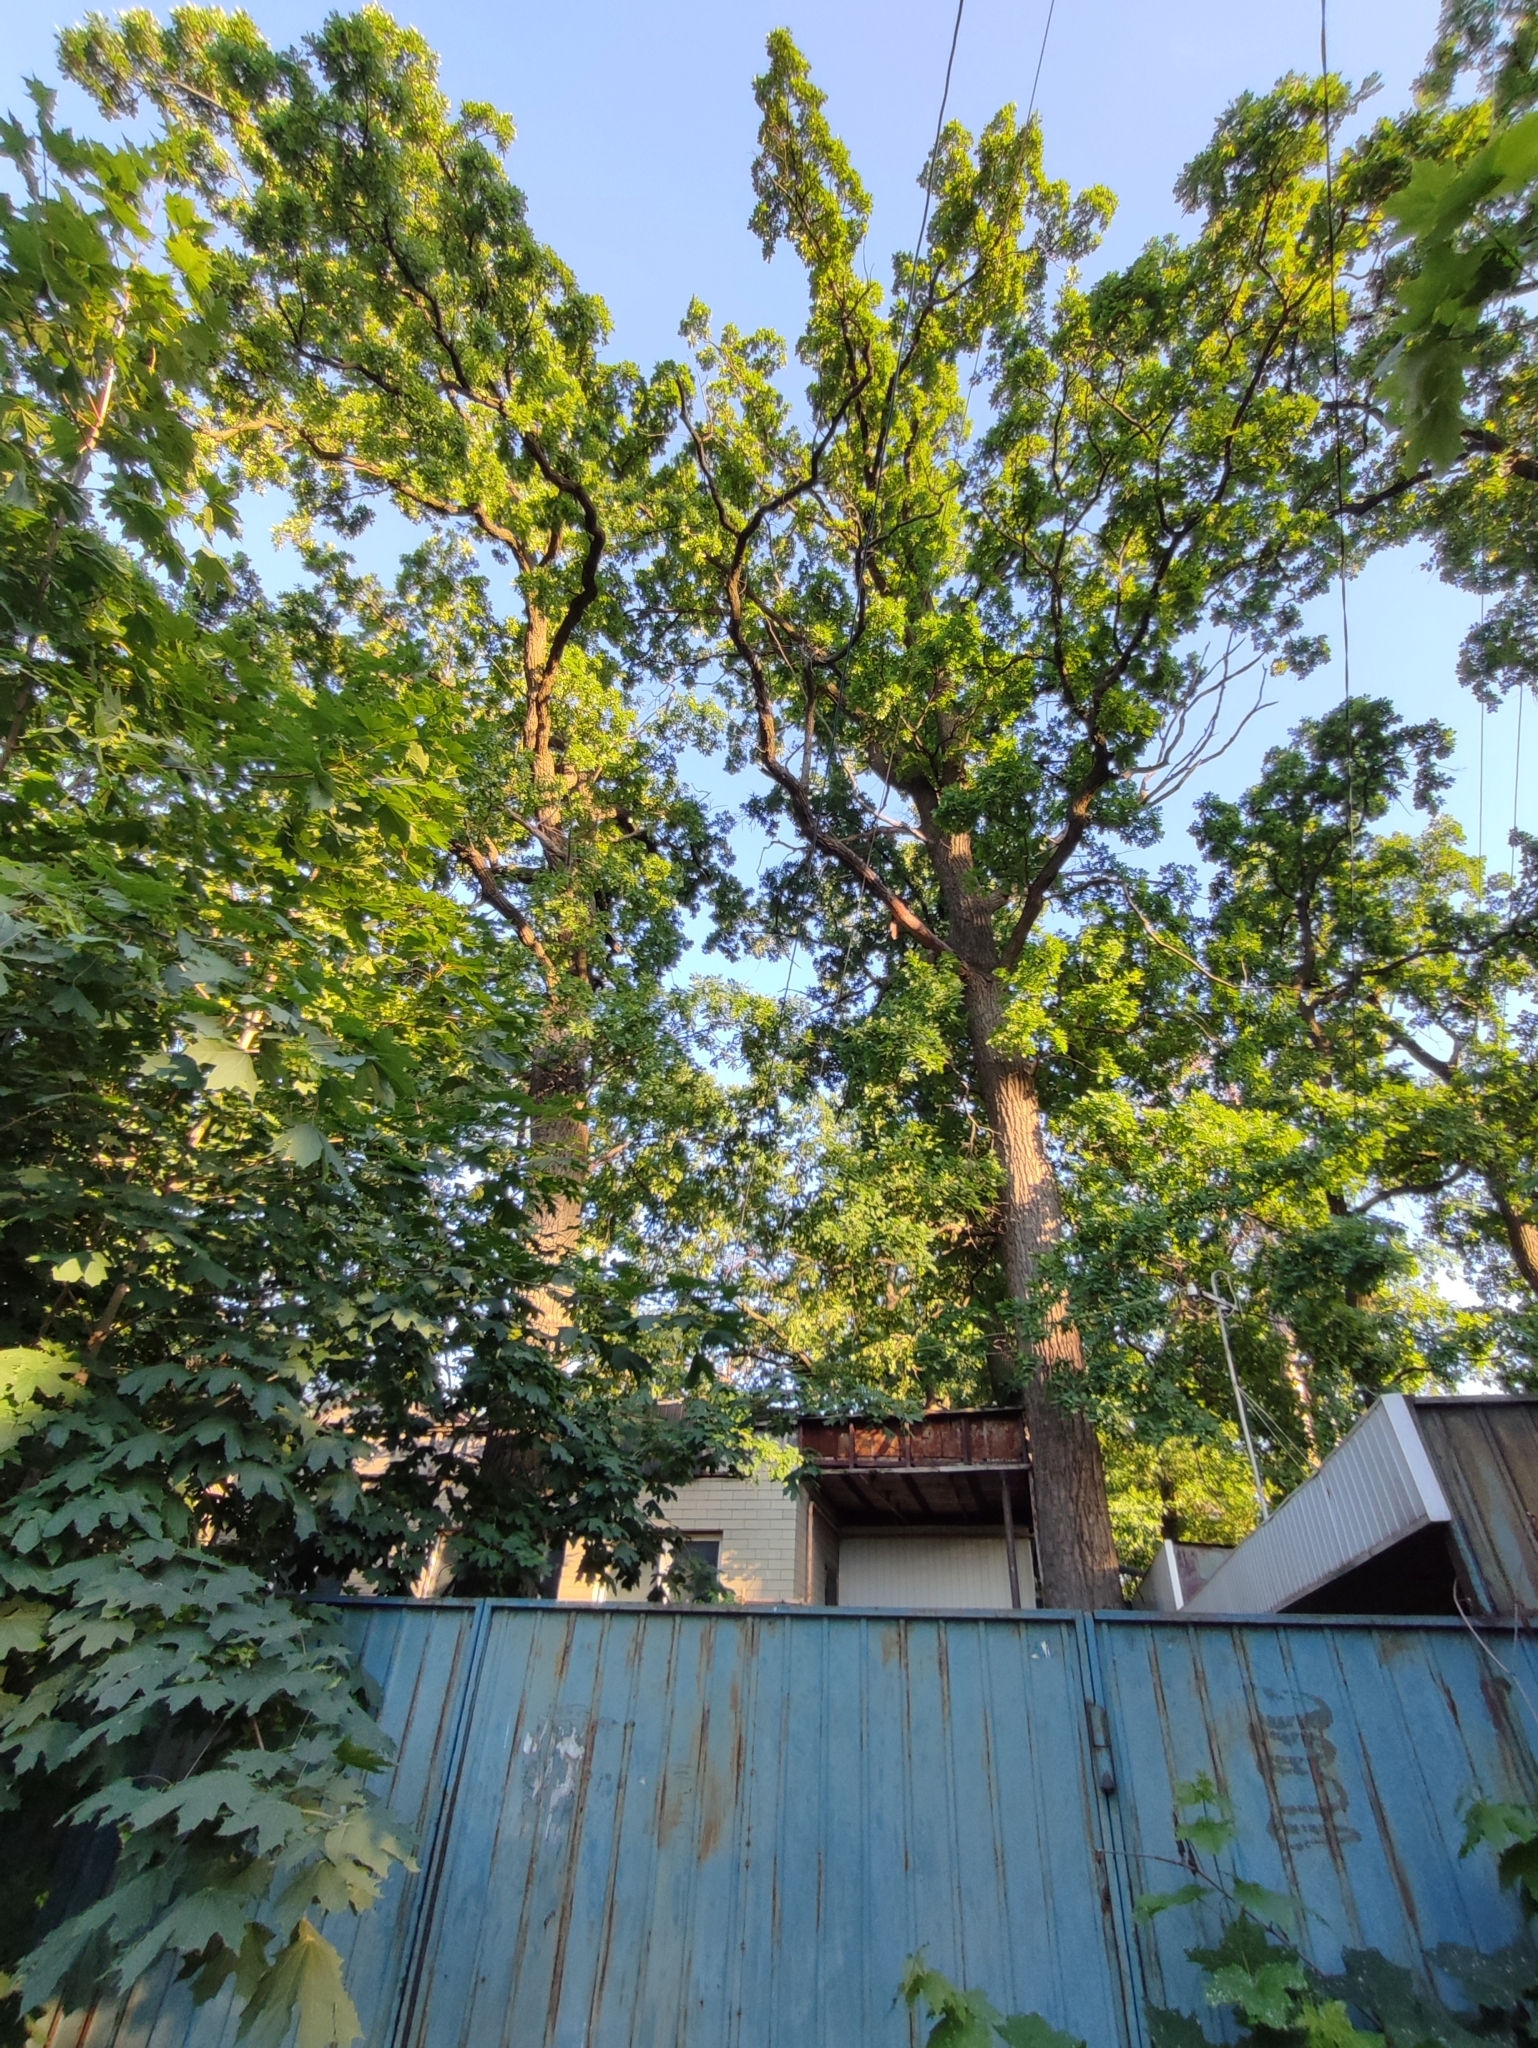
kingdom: Plantae
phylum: Tracheophyta
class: Magnoliopsida
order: Fagales
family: Fagaceae
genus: Quercus
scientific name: Quercus robur
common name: Pedunculate oak
